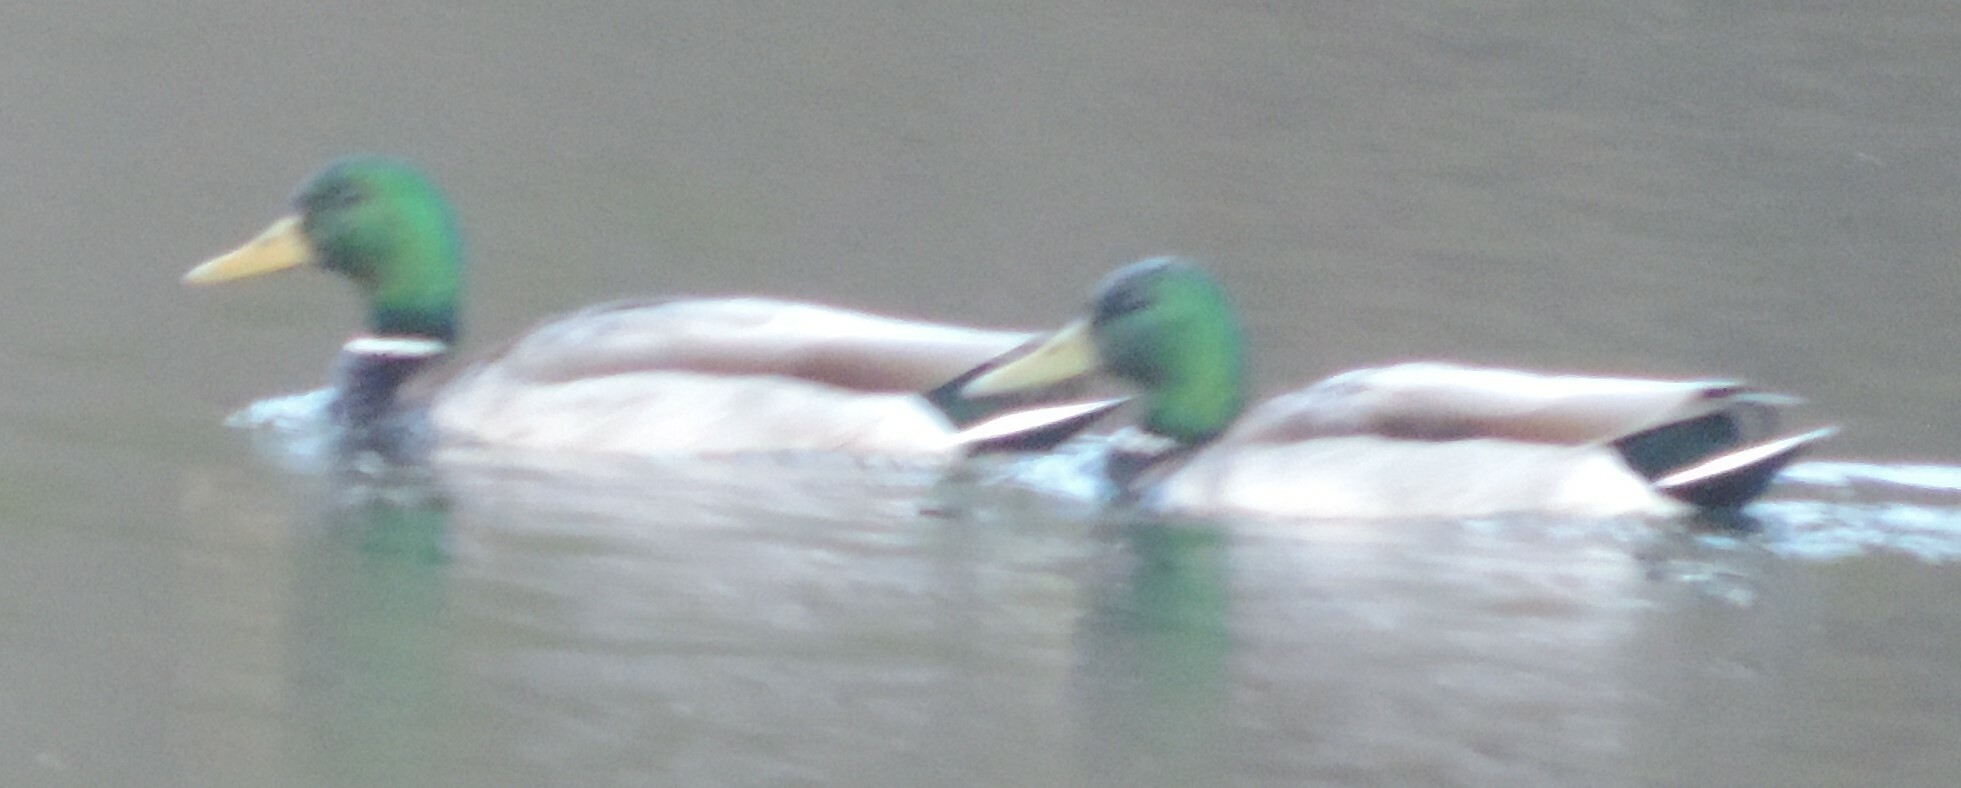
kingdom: Animalia
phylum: Chordata
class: Aves
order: Anseriformes
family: Anatidae
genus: Anas
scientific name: Anas platyrhynchos
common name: Mallard
